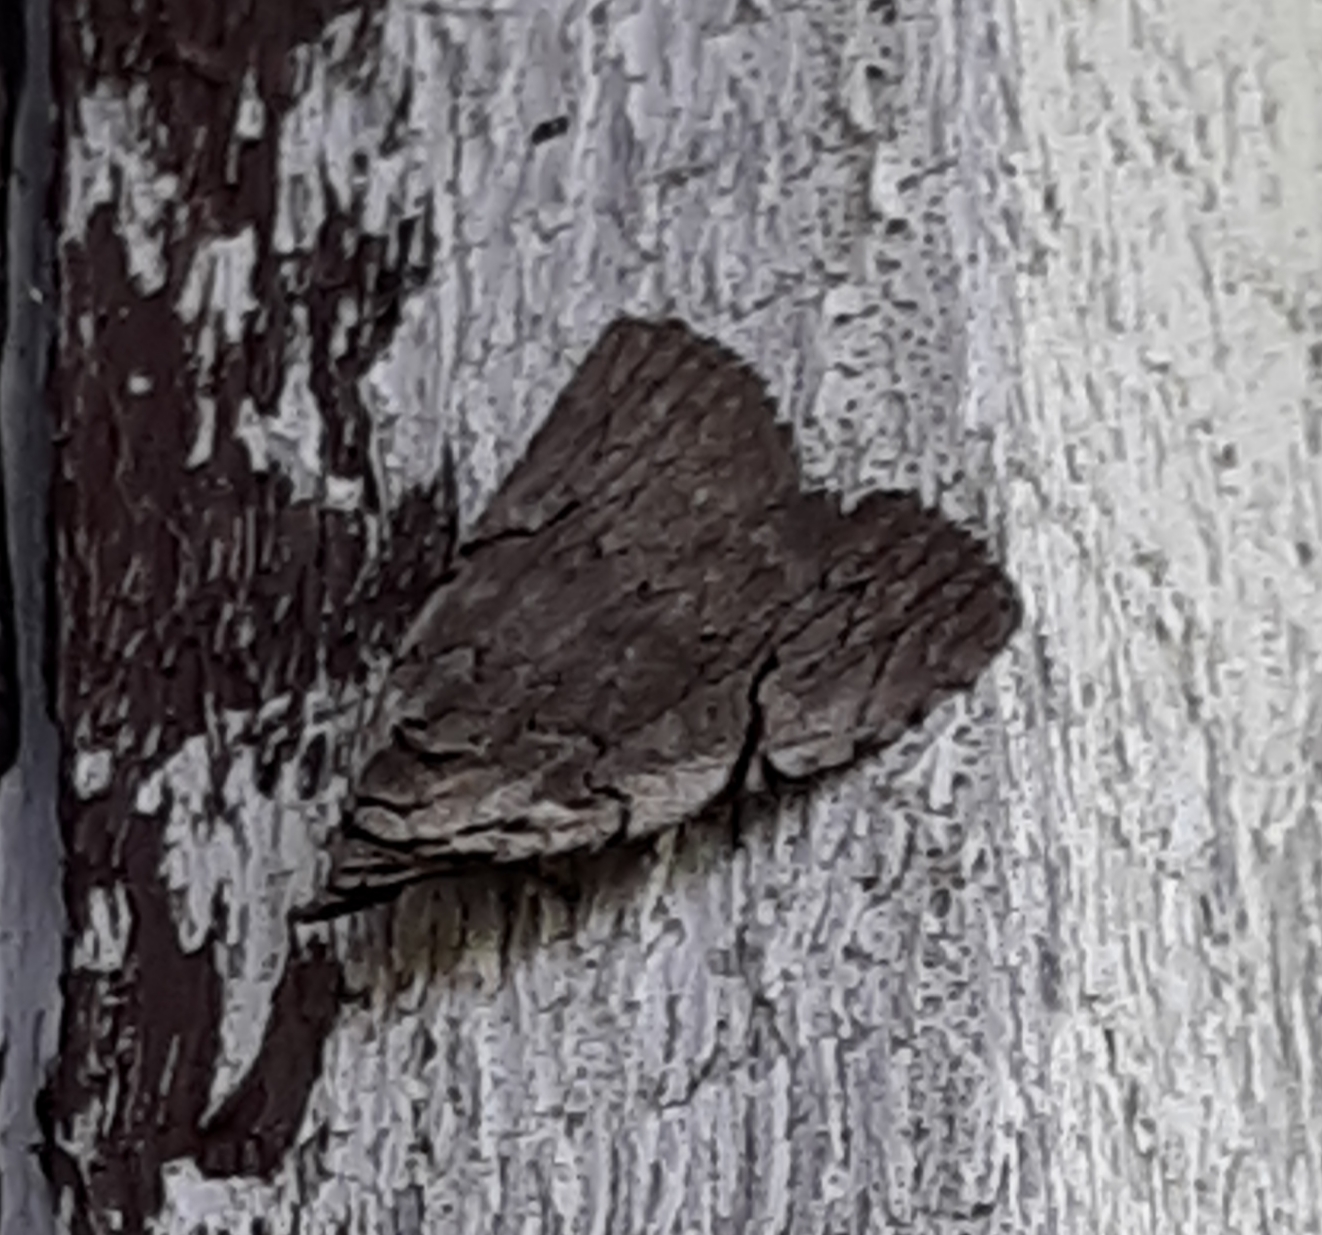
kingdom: Animalia
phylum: Arthropoda
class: Insecta
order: Lepidoptera
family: Noctuidae
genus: Balsa
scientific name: Balsa tristrigella
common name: Three-lined balsa moth
